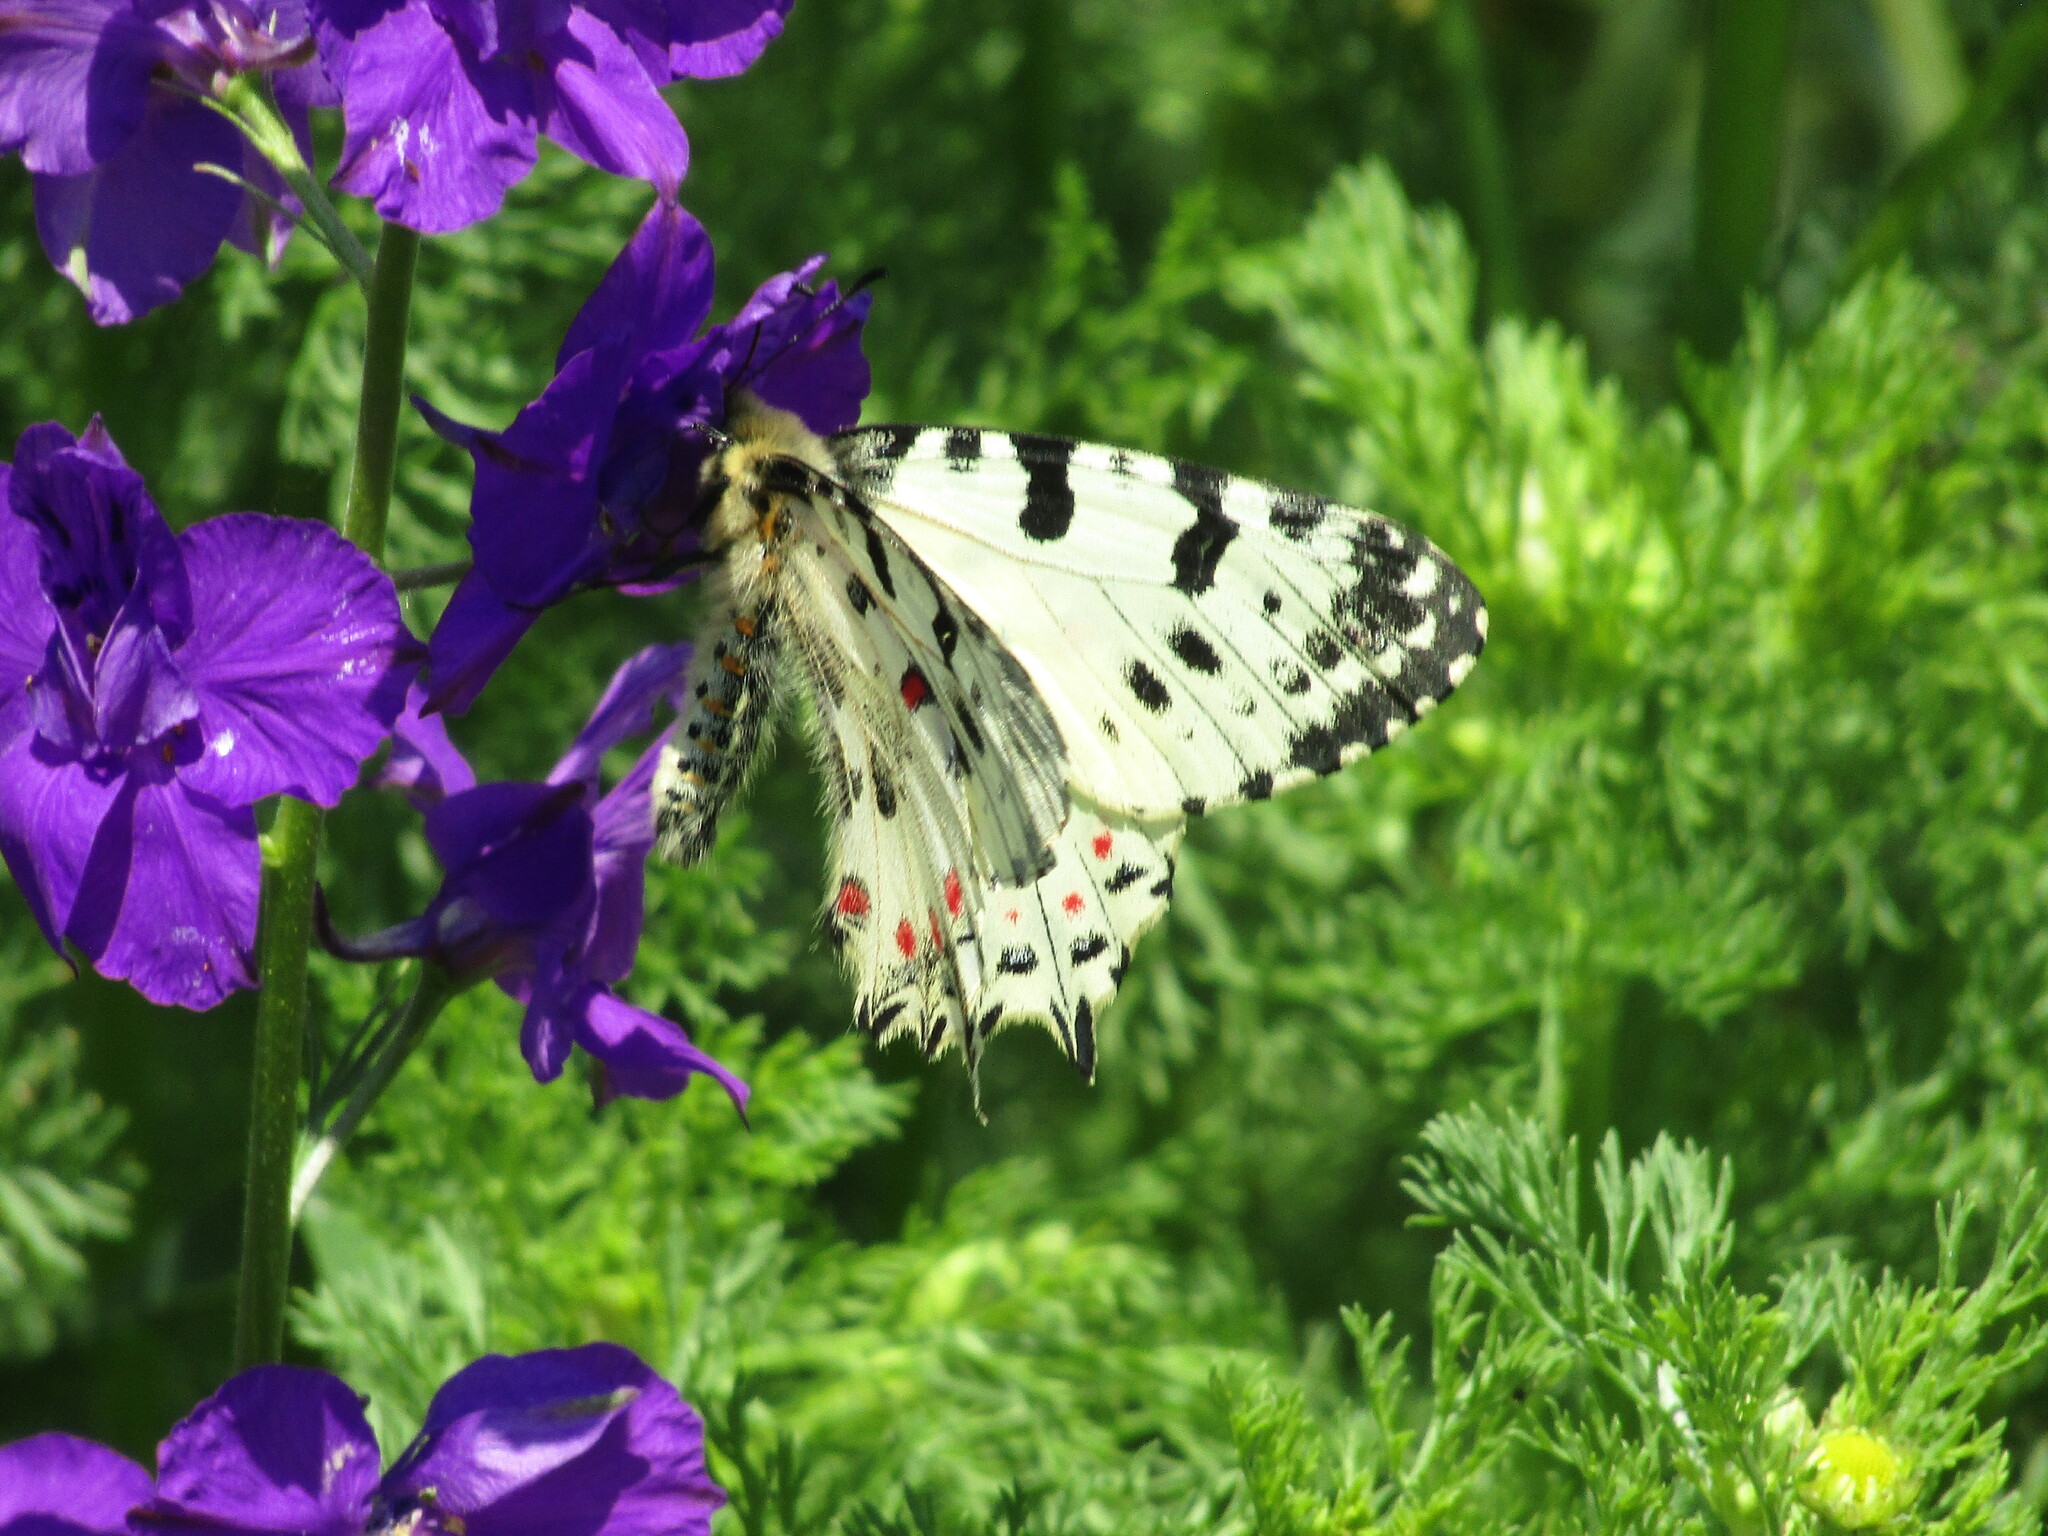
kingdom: Animalia
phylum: Arthropoda
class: Insecta
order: Lepidoptera
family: Papilionidae
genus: Zerynthia
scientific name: Zerynthia cerisy
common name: Eastern festoon
